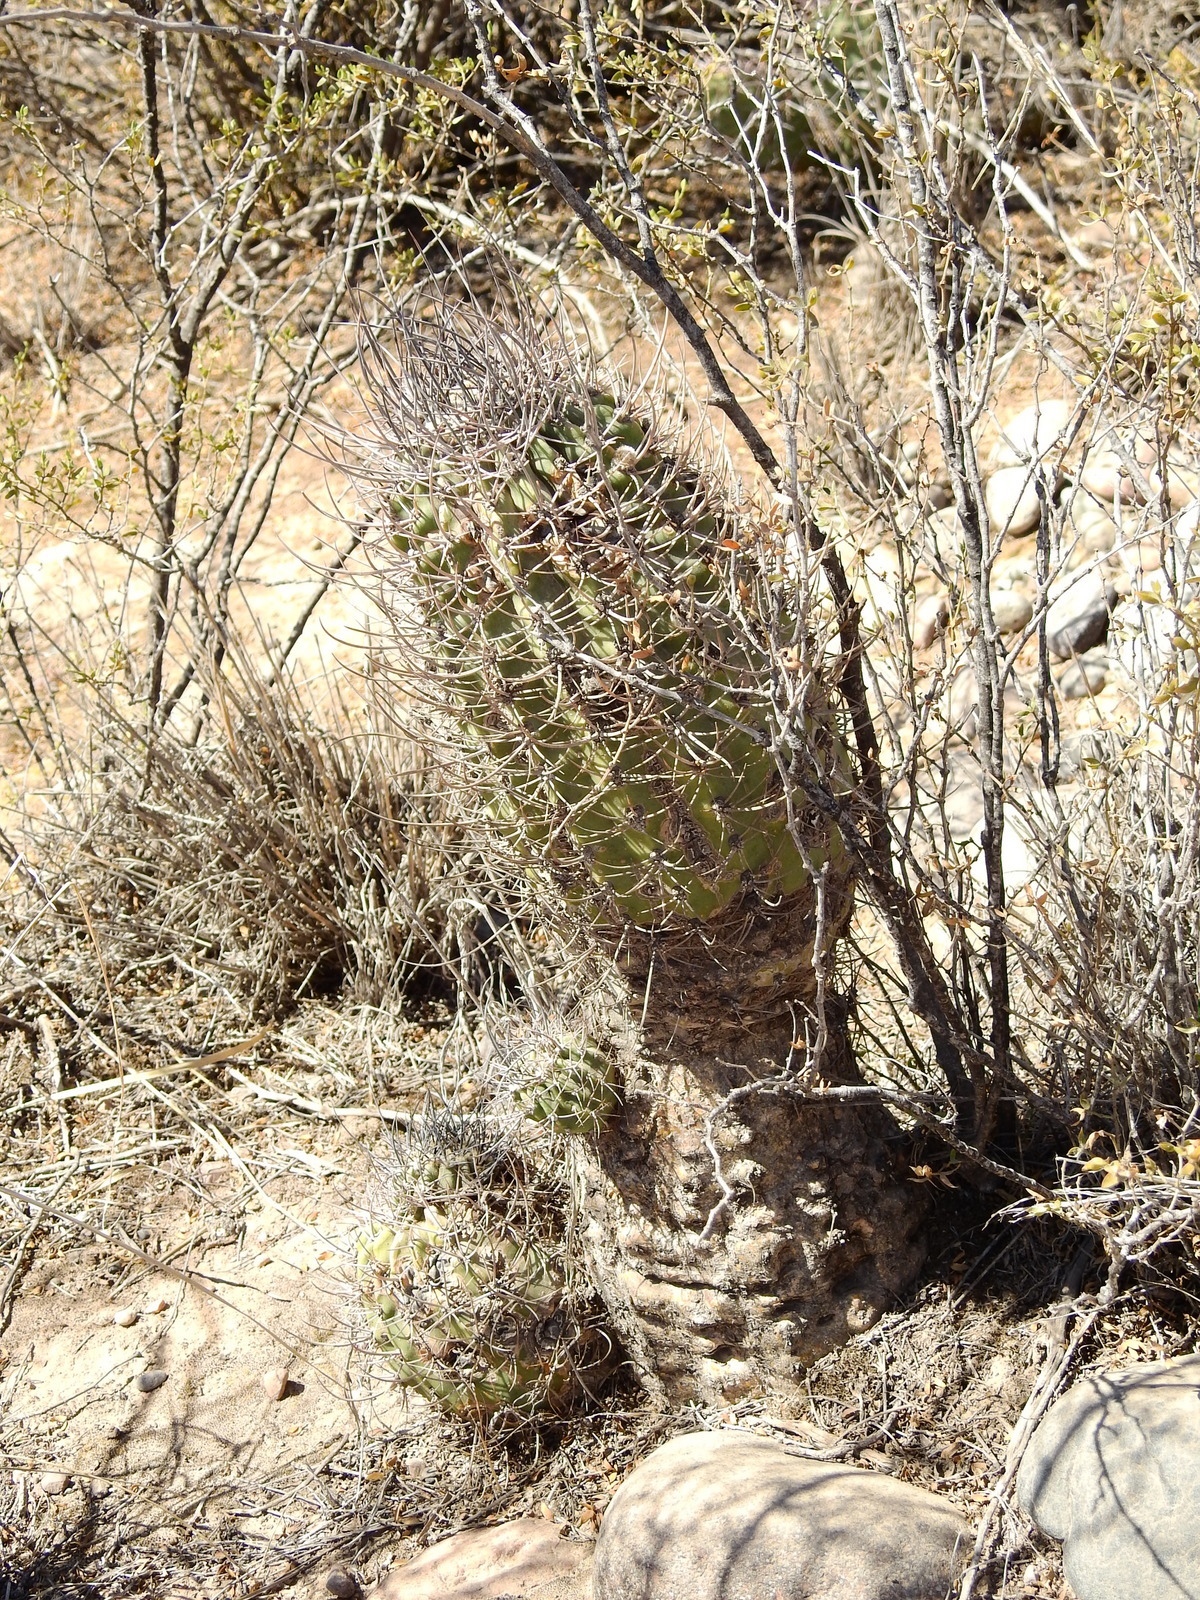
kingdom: Plantae
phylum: Tracheophyta
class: Magnoliopsida
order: Caryophyllales
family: Cactaceae
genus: Acanthocalycium
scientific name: Acanthocalycium leucanthum
